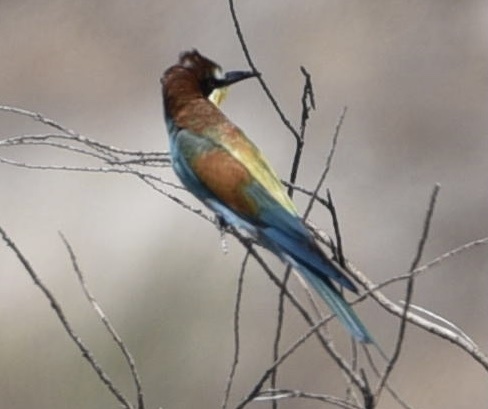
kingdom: Animalia
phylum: Chordata
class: Aves
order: Coraciiformes
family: Meropidae
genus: Merops
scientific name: Merops apiaster
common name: European bee-eater
